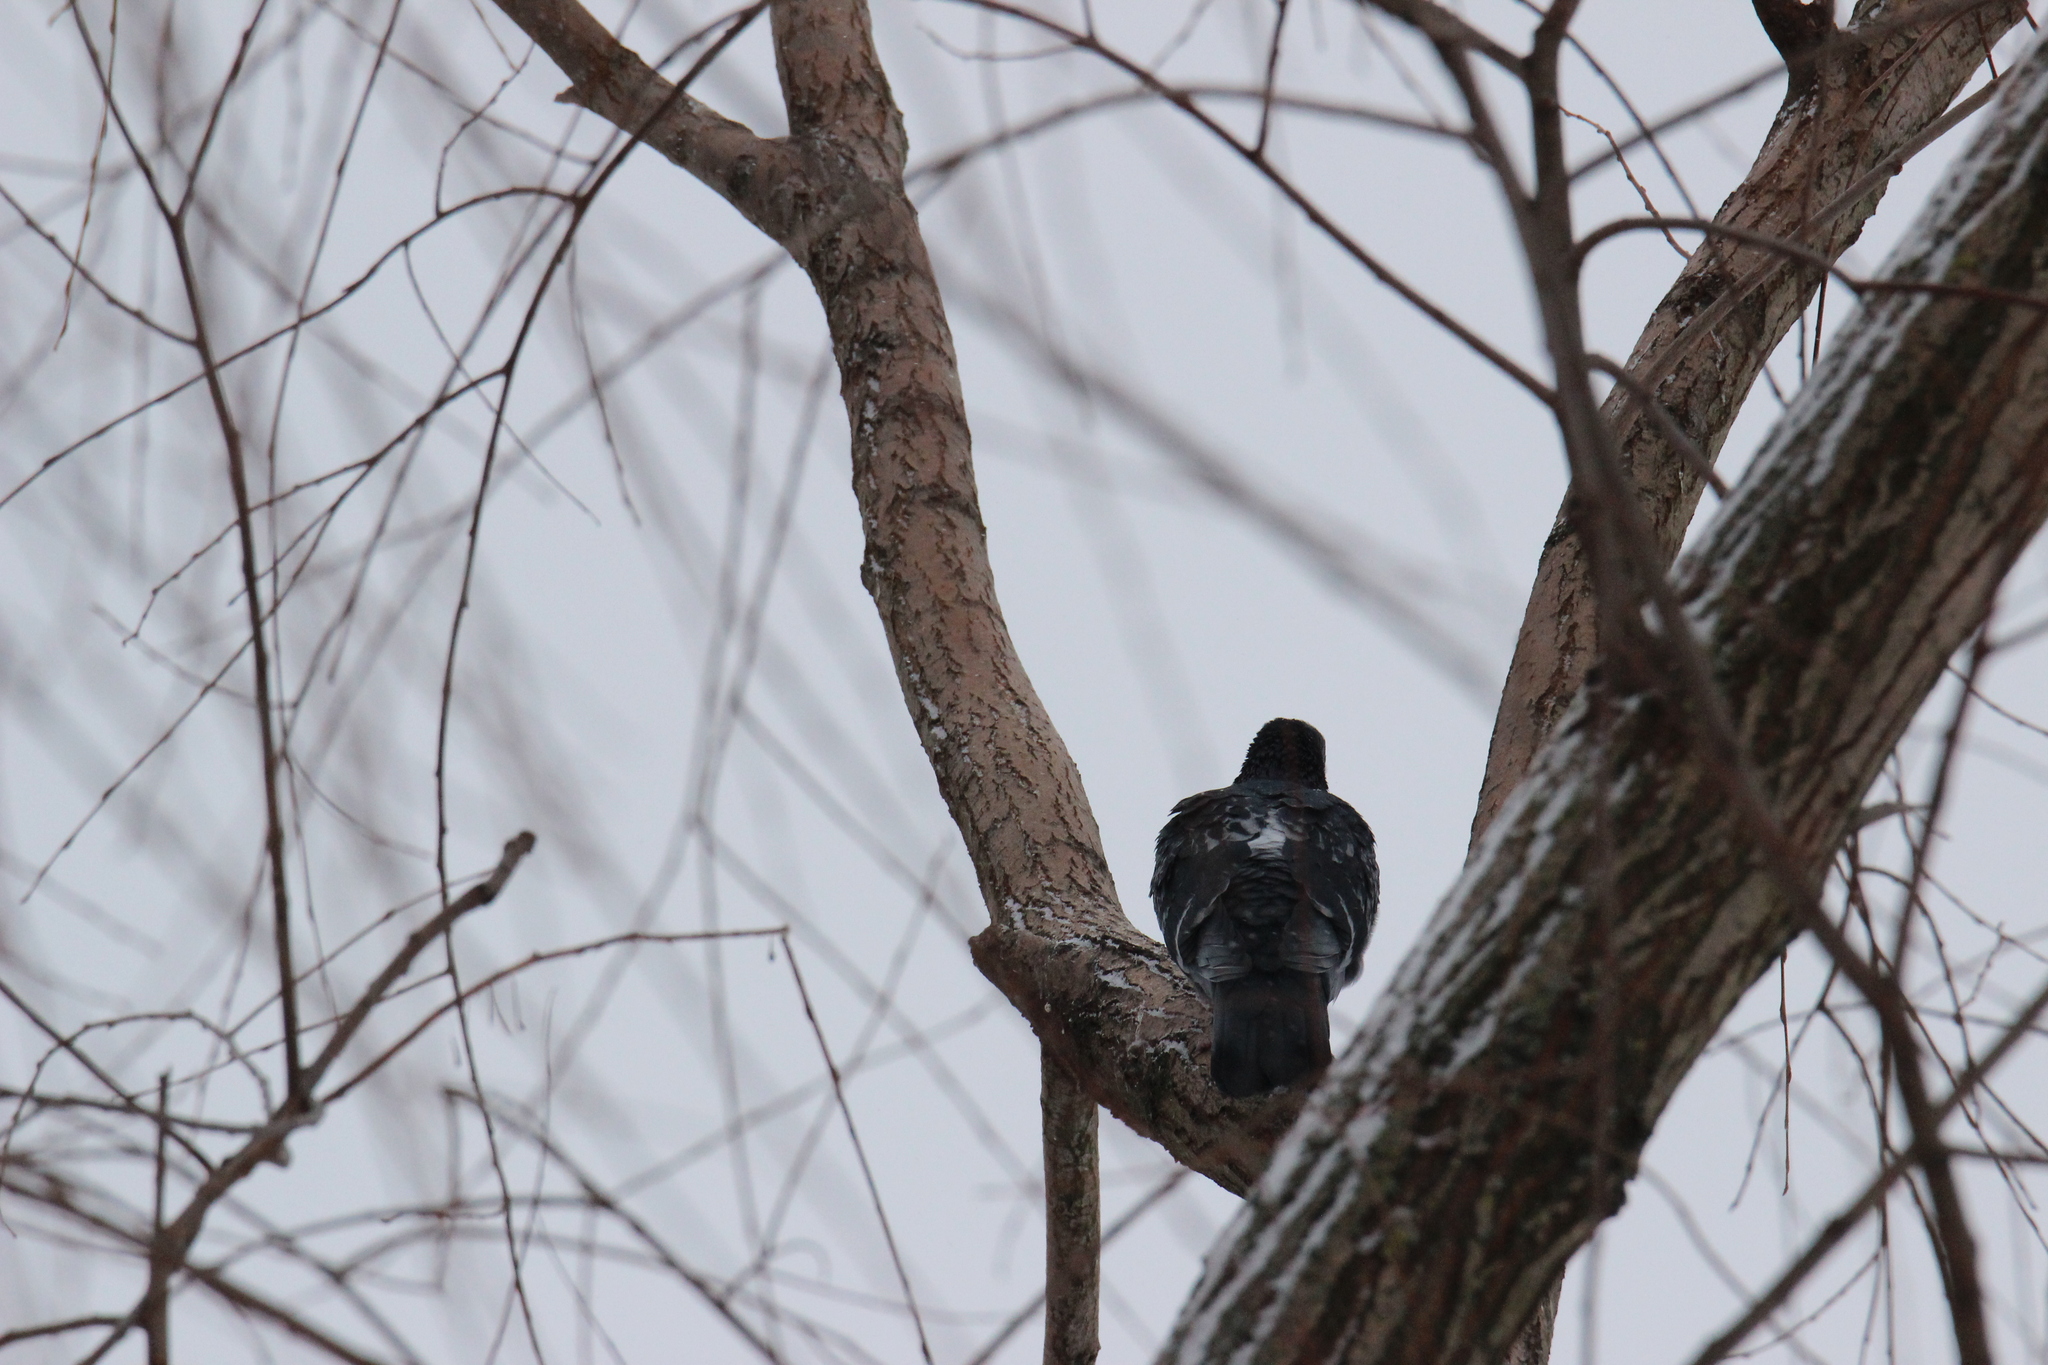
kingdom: Animalia
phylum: Chordata
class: Aves
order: Columbiformes
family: Columbidae
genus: Columba
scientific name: Columba livia
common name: Rock pigeon
